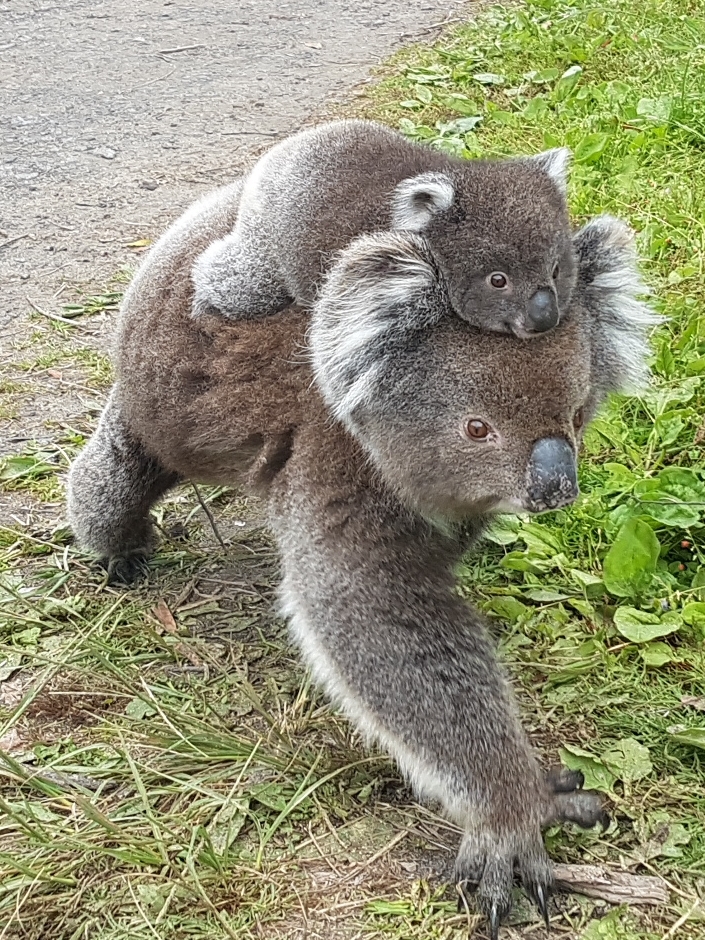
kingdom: Animalia
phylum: Chordata
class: Mammalia
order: Diprotodontia
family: Phascolarctidae
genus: Phascolarctos
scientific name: Phascolarctos cinereus
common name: Koala
